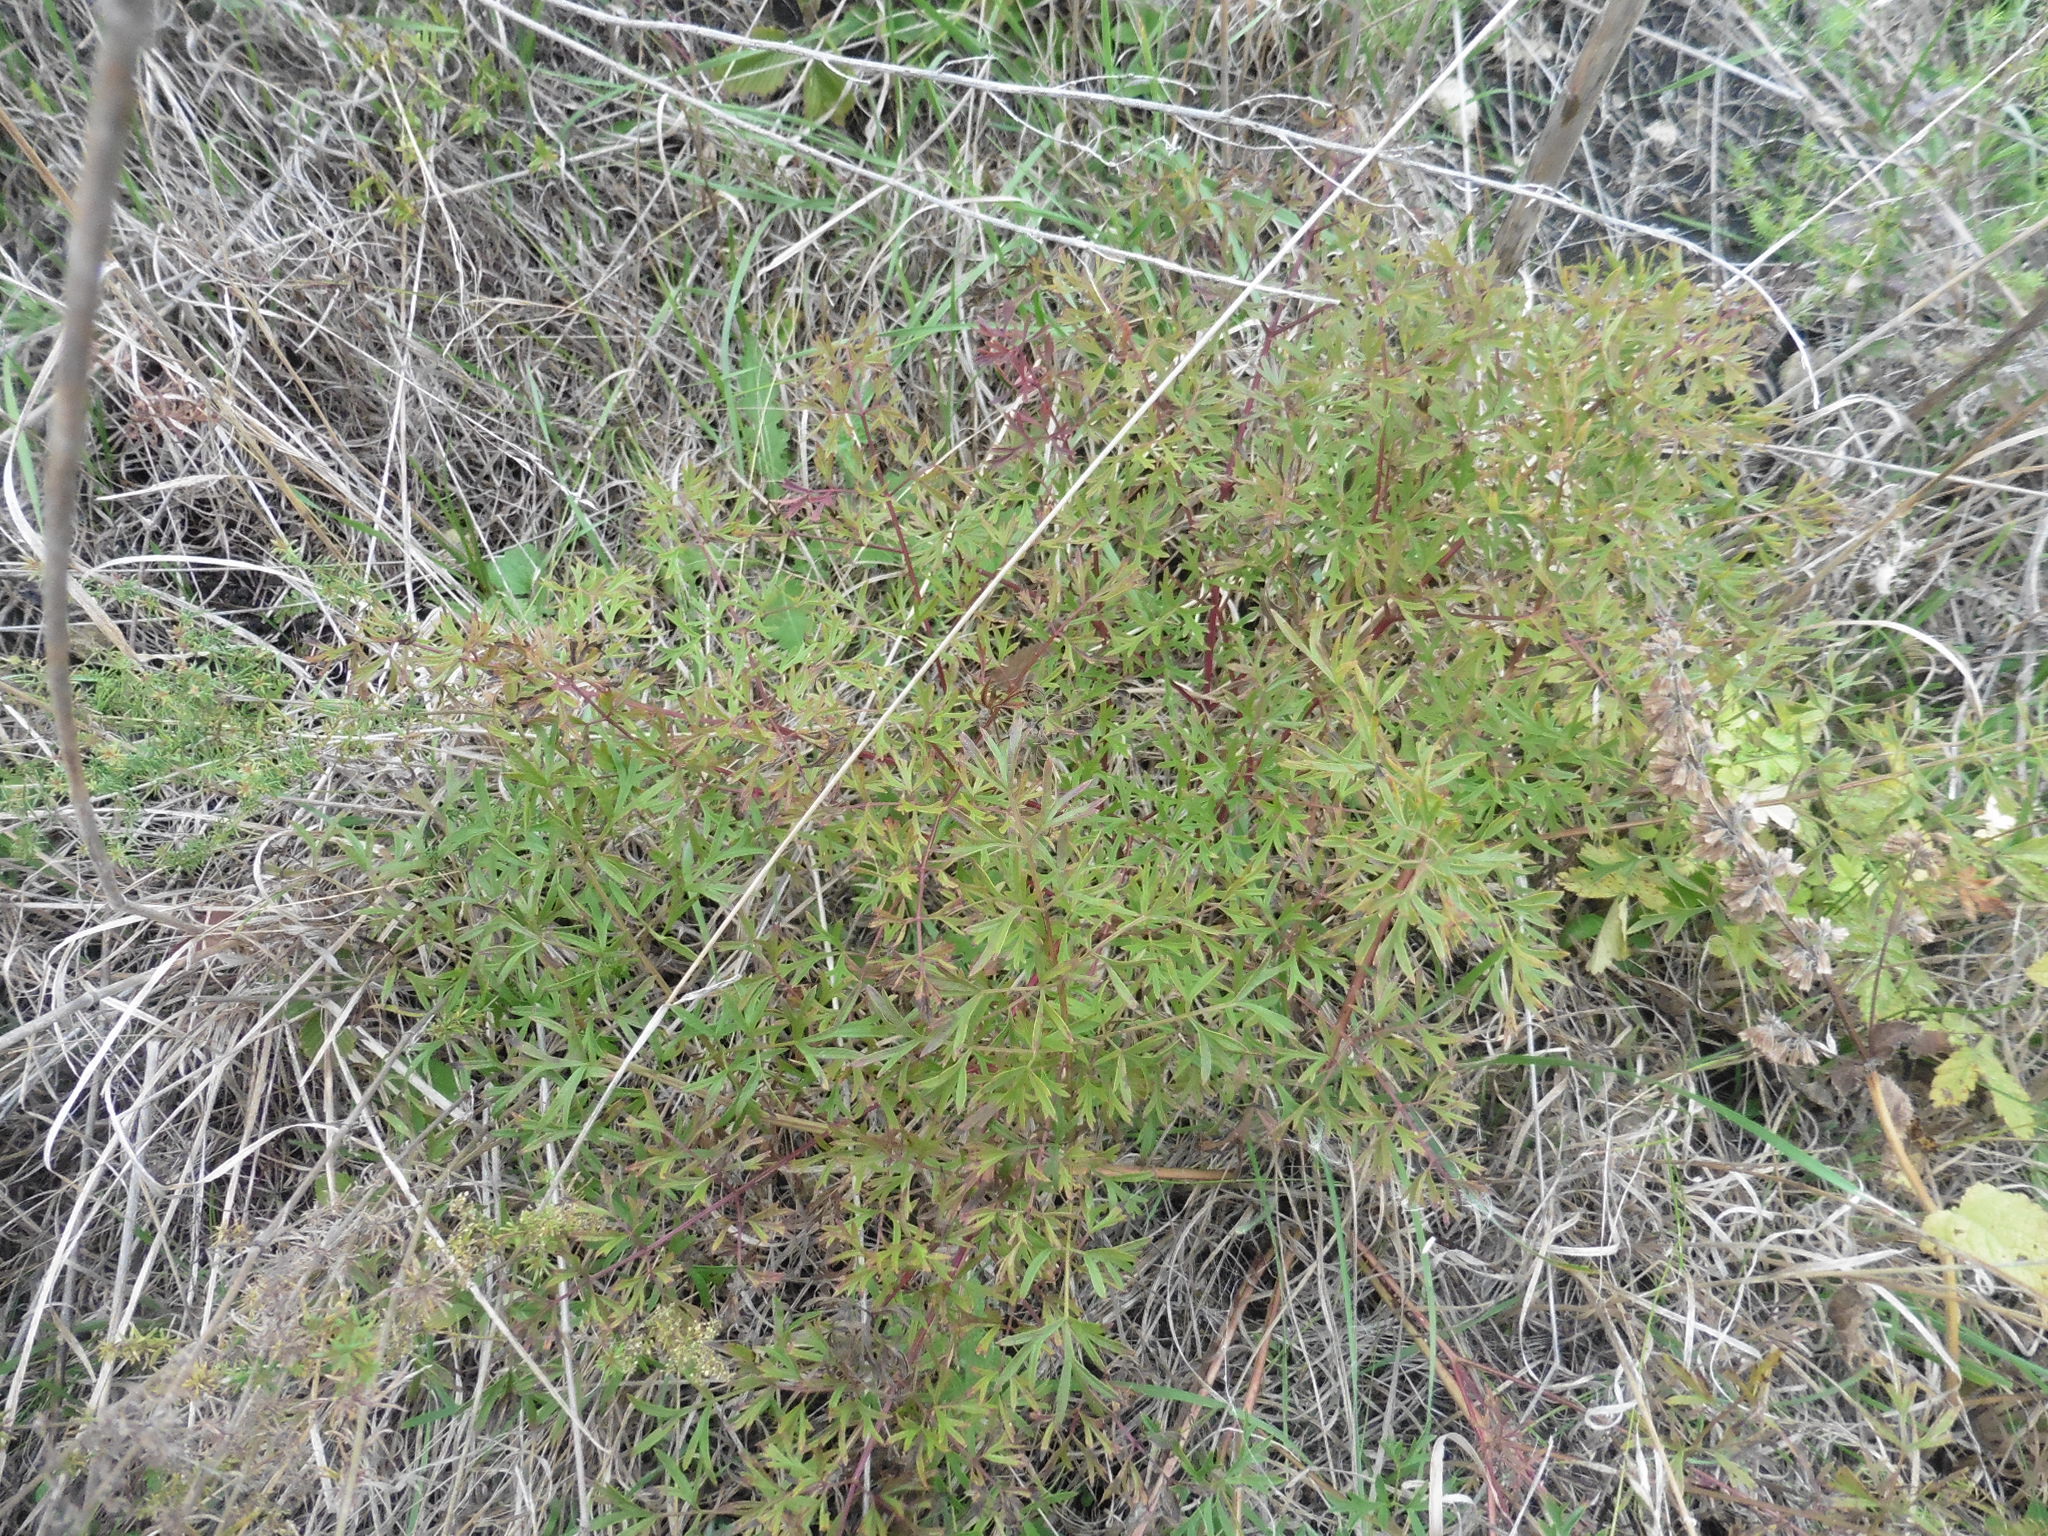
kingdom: Plantae
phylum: Tracheophyta
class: Magnoliopsida
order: Apiales
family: Apiaceae
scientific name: Apiaceae
